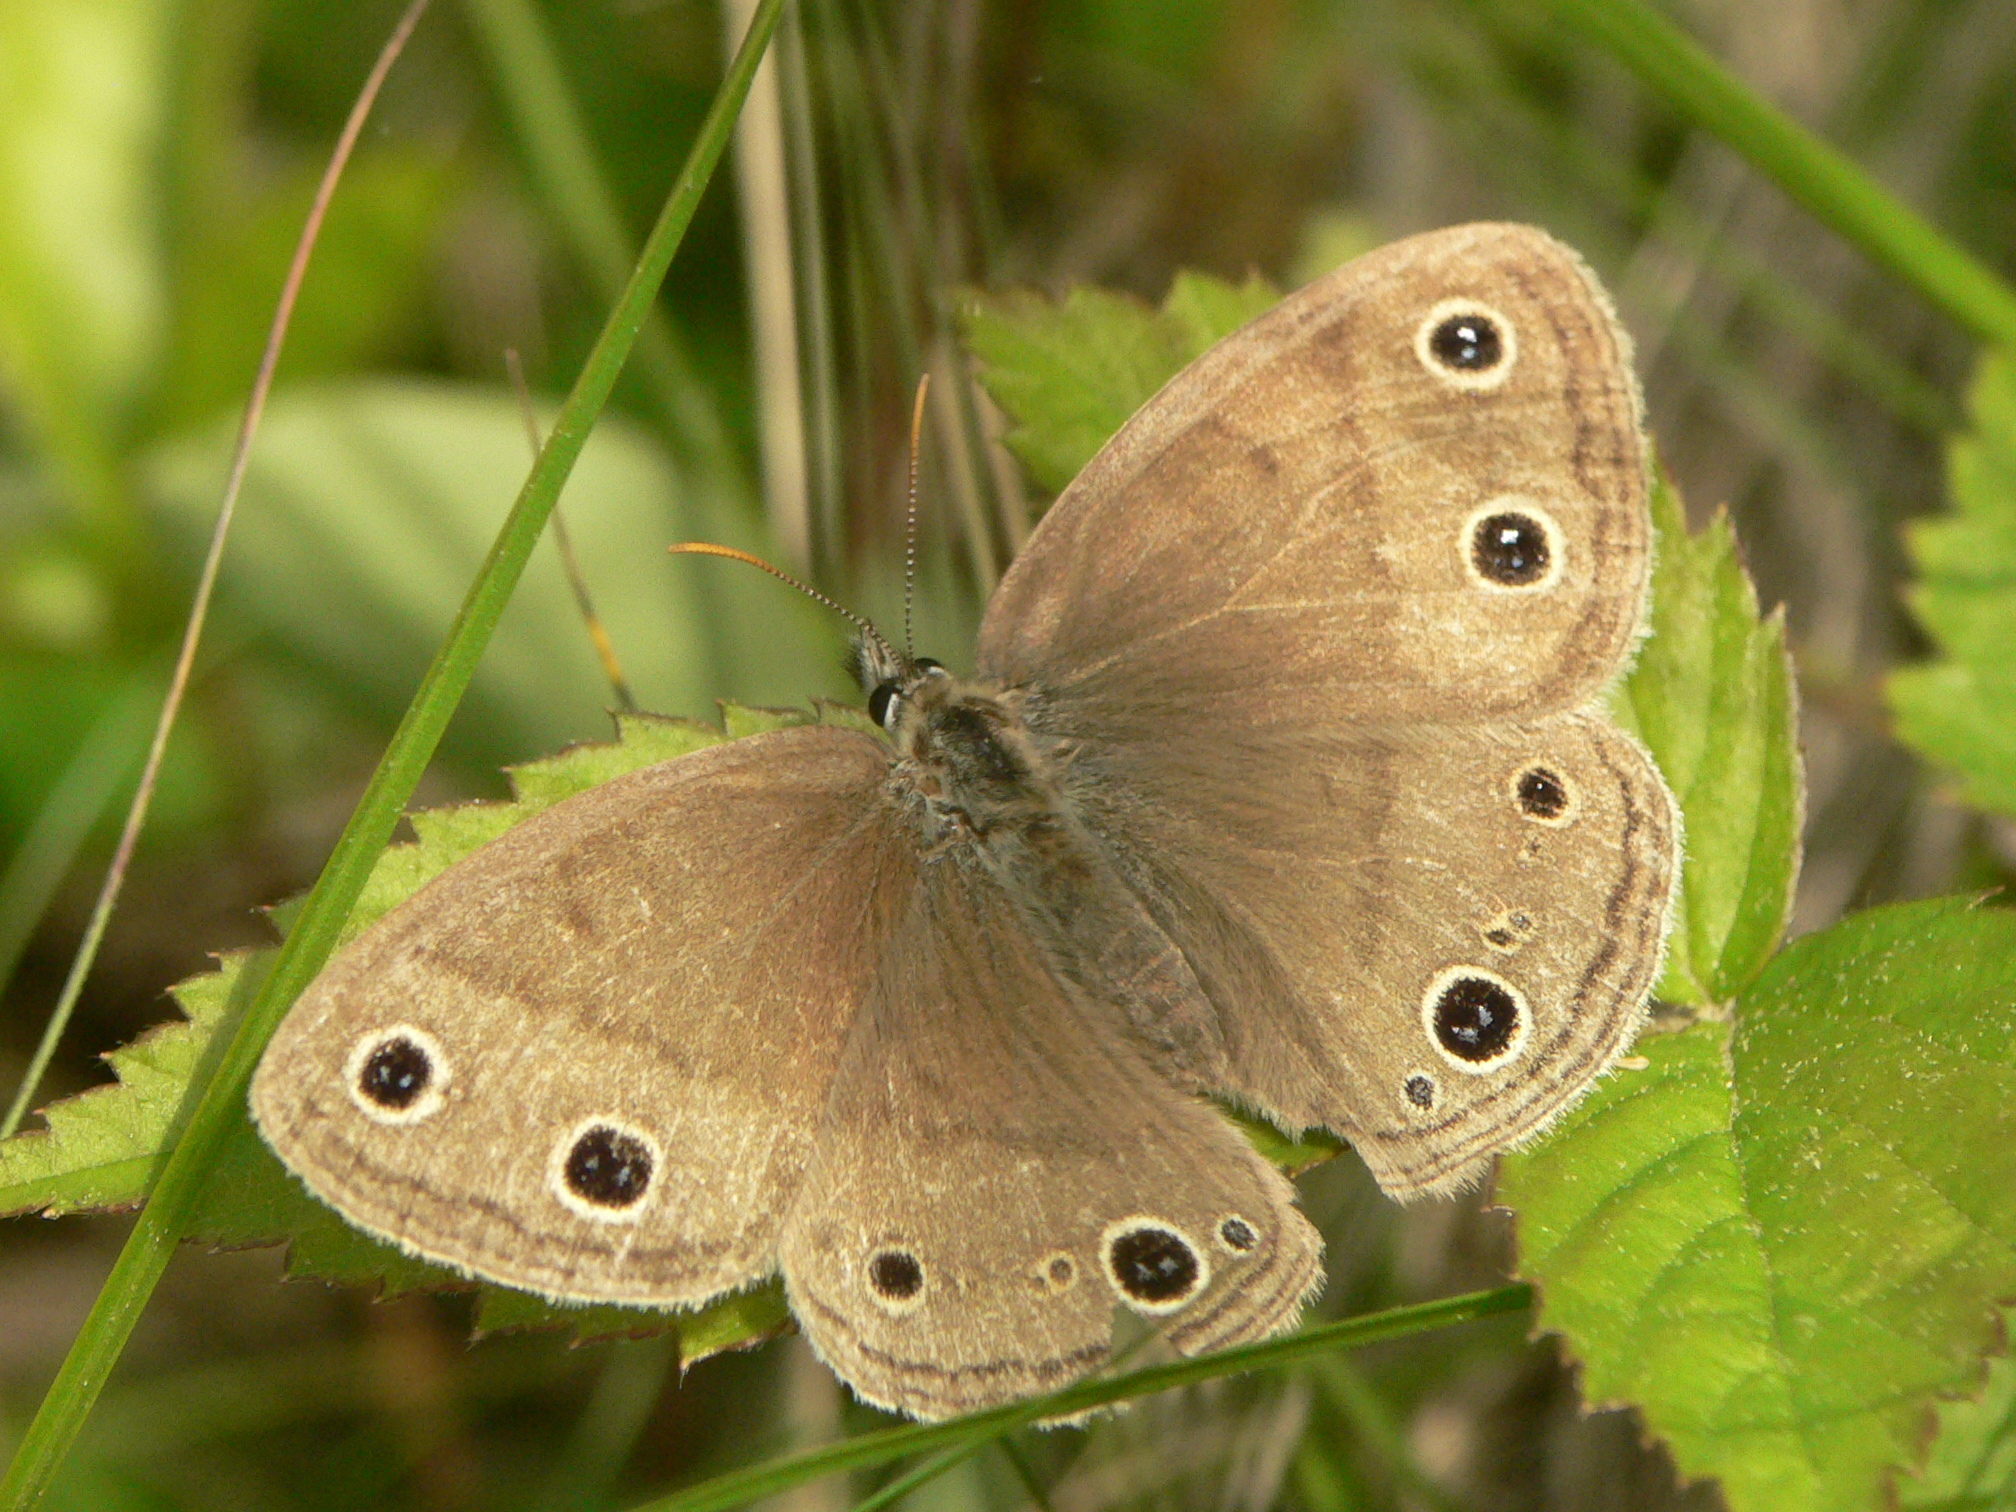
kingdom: Animalia
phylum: Arthropoda
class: Insecta
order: Lepidoptera
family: Nymphalidae
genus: Euptychia
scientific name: Euptychia cymela
